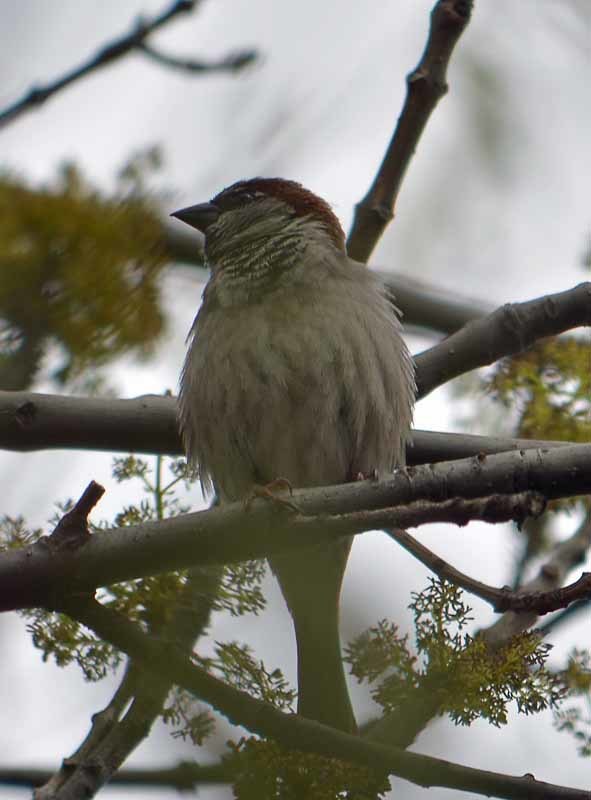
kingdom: Animalia
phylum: Chordata
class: Aves
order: Passeriformes
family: Passeridae
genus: Passer
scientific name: Passer domesticus
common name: House sparrow
